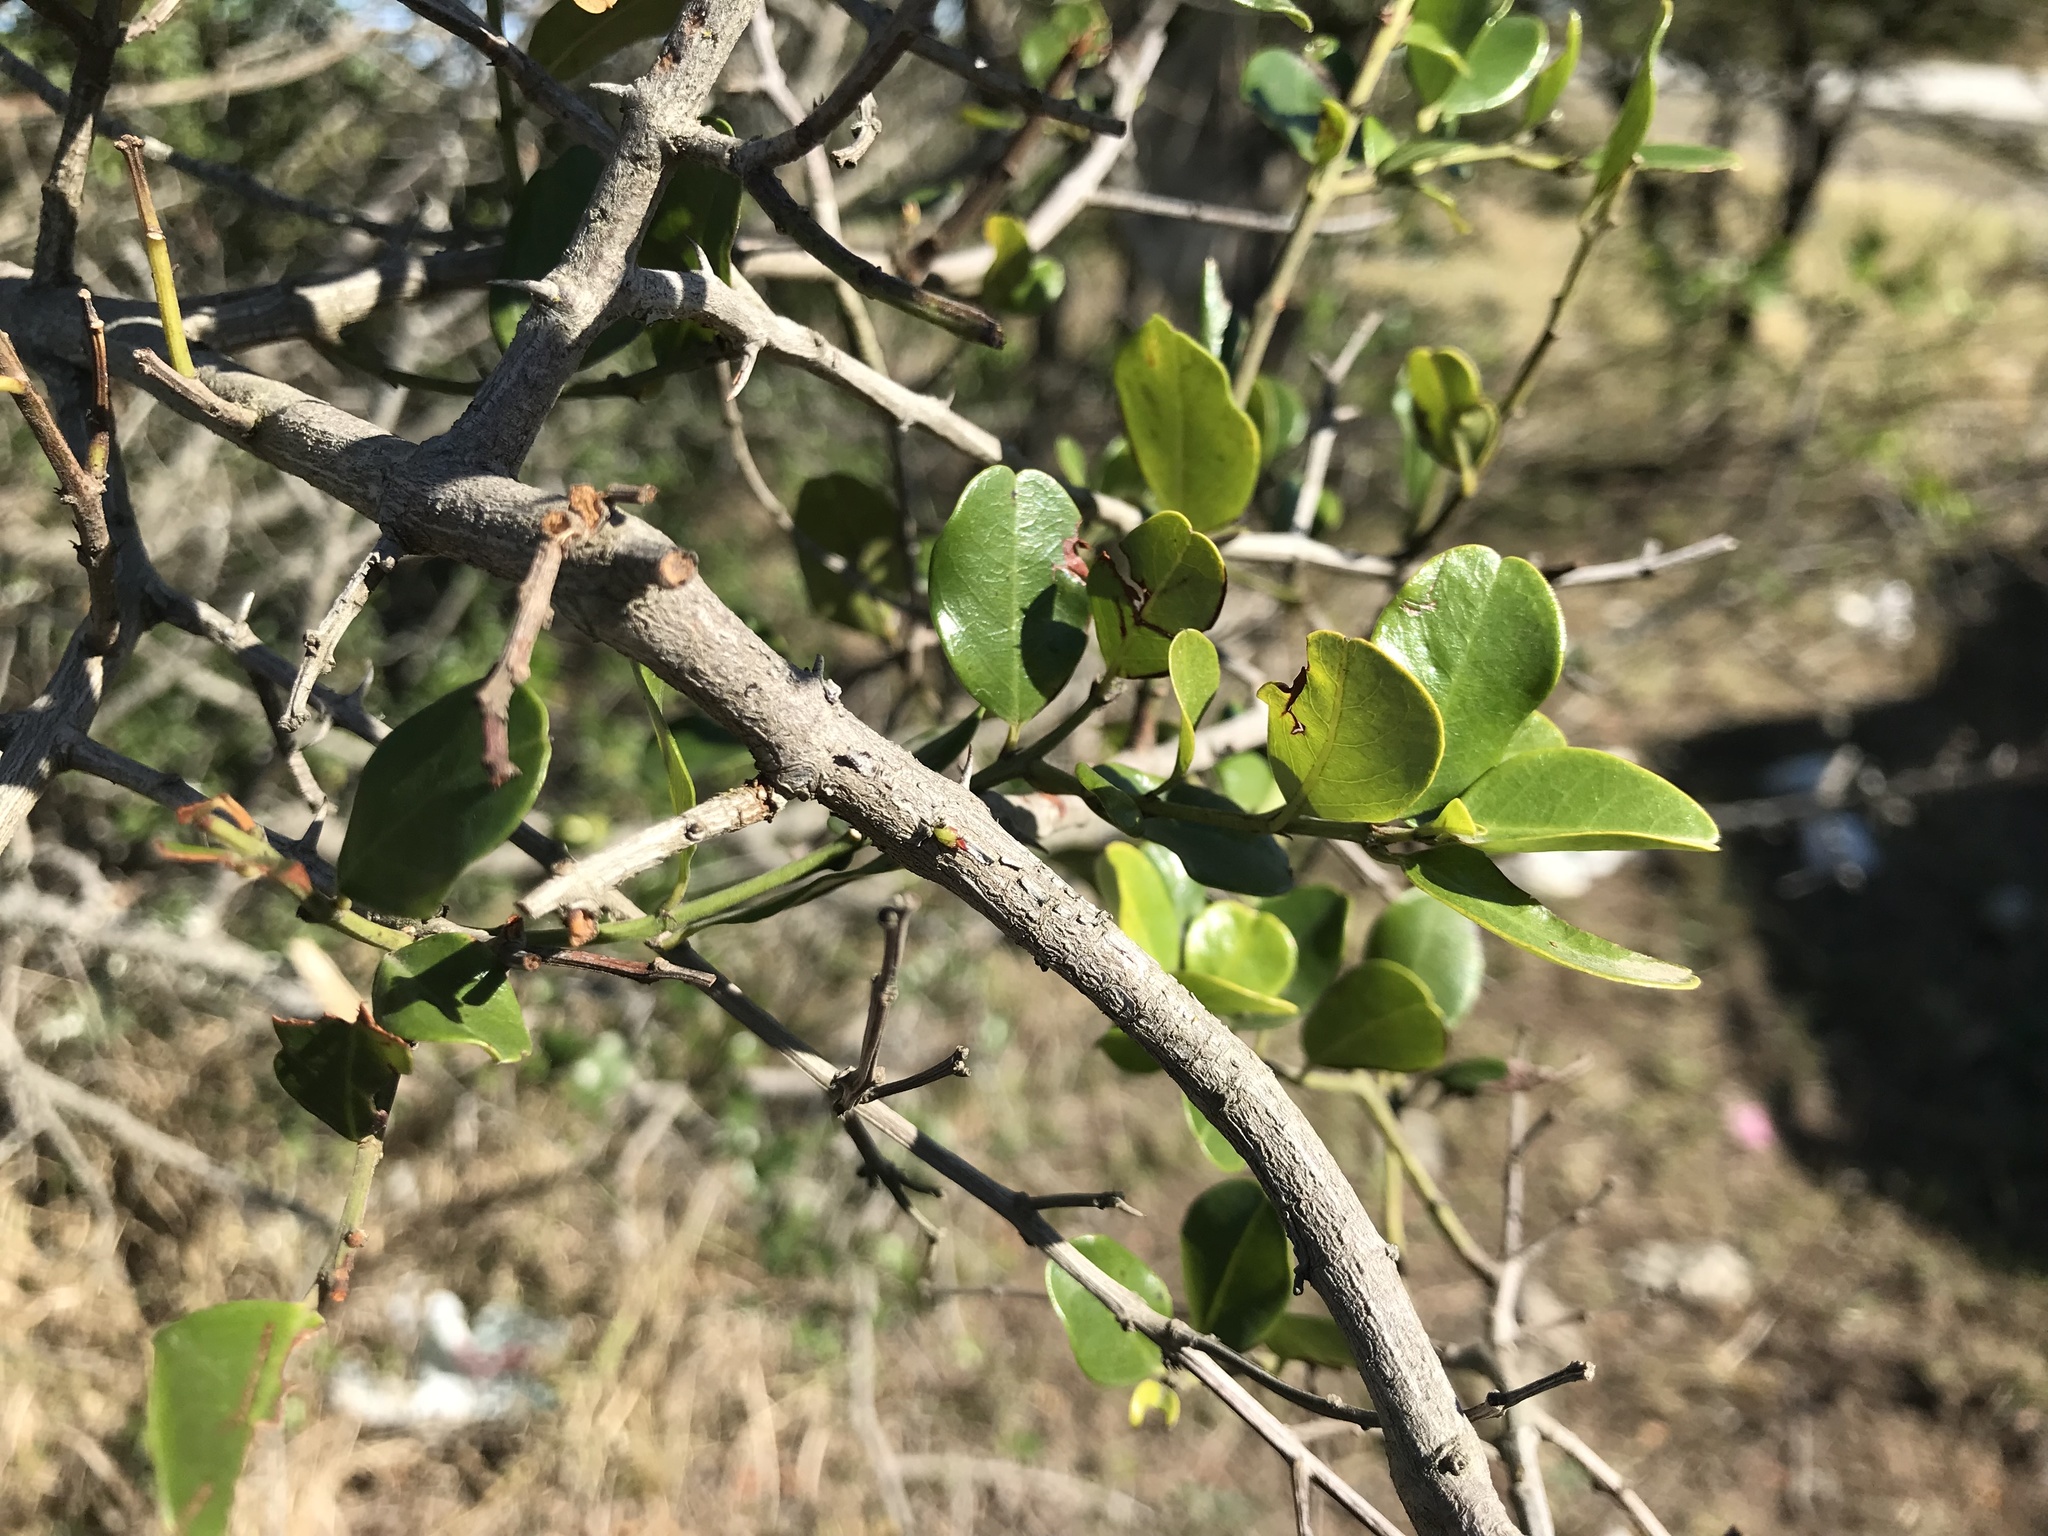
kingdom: Plantae
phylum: Tracheophyta
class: Magnoliopsida
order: Rosales
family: Rhamnaceae
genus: Scutia
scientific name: Scutia myrtina
